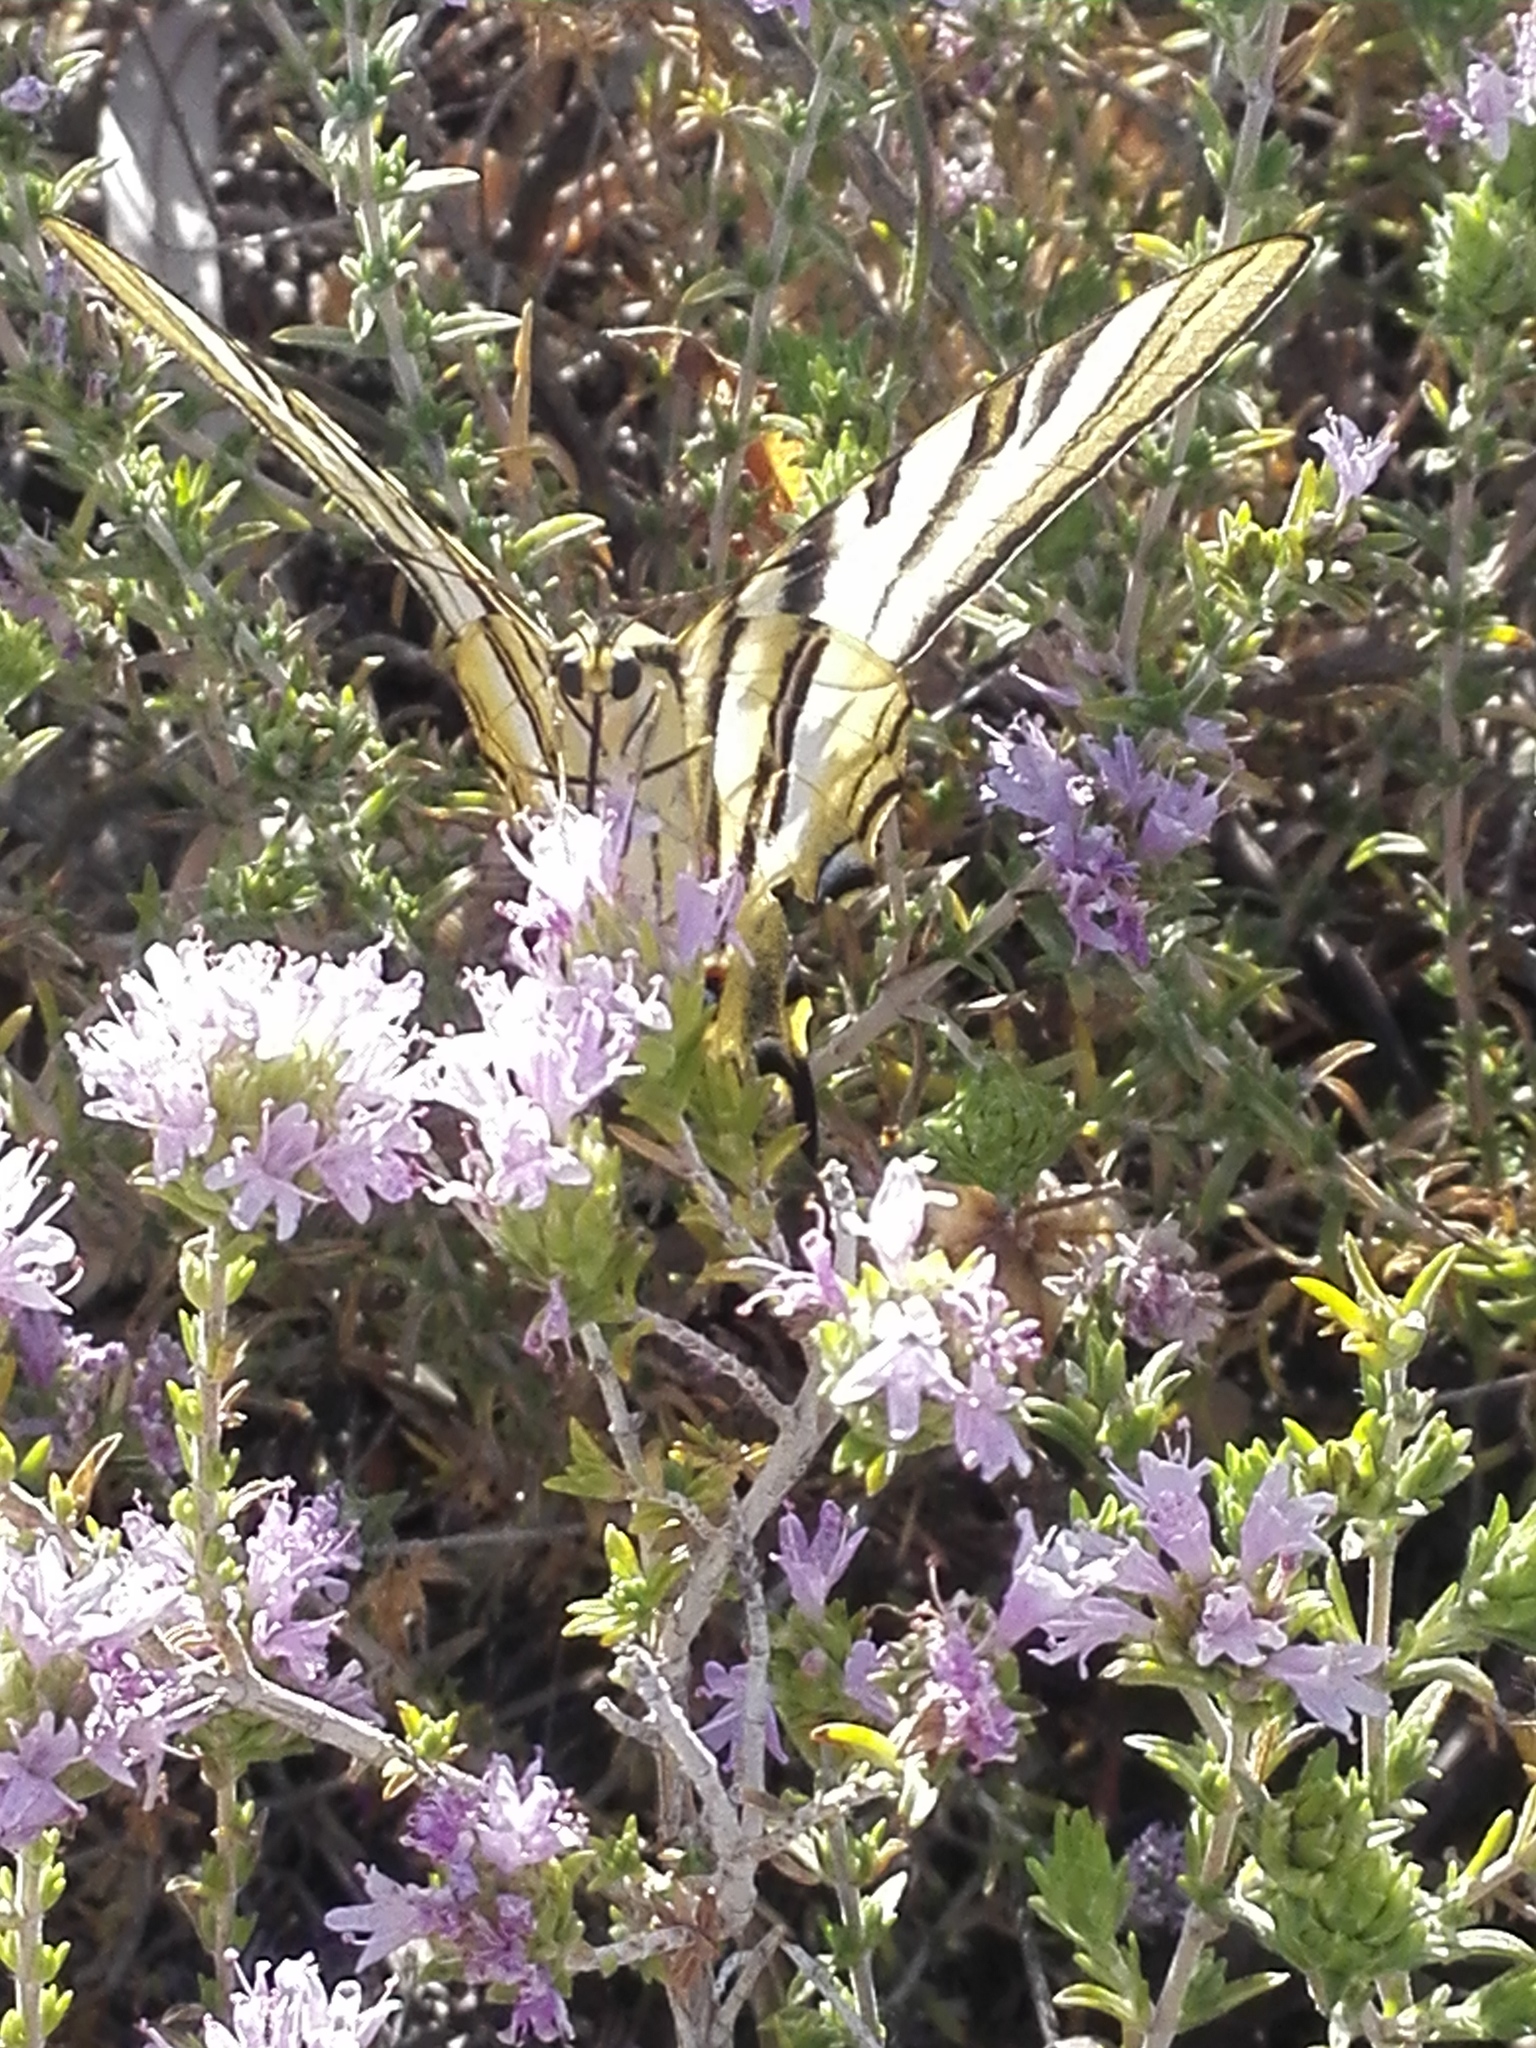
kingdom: Animalia
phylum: Arthropoda
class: Insecta
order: Lepidoptera
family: Papilionidae
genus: Iphiclides
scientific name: Iphiclides feisthamelii
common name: Iberian scarce swallowtail
